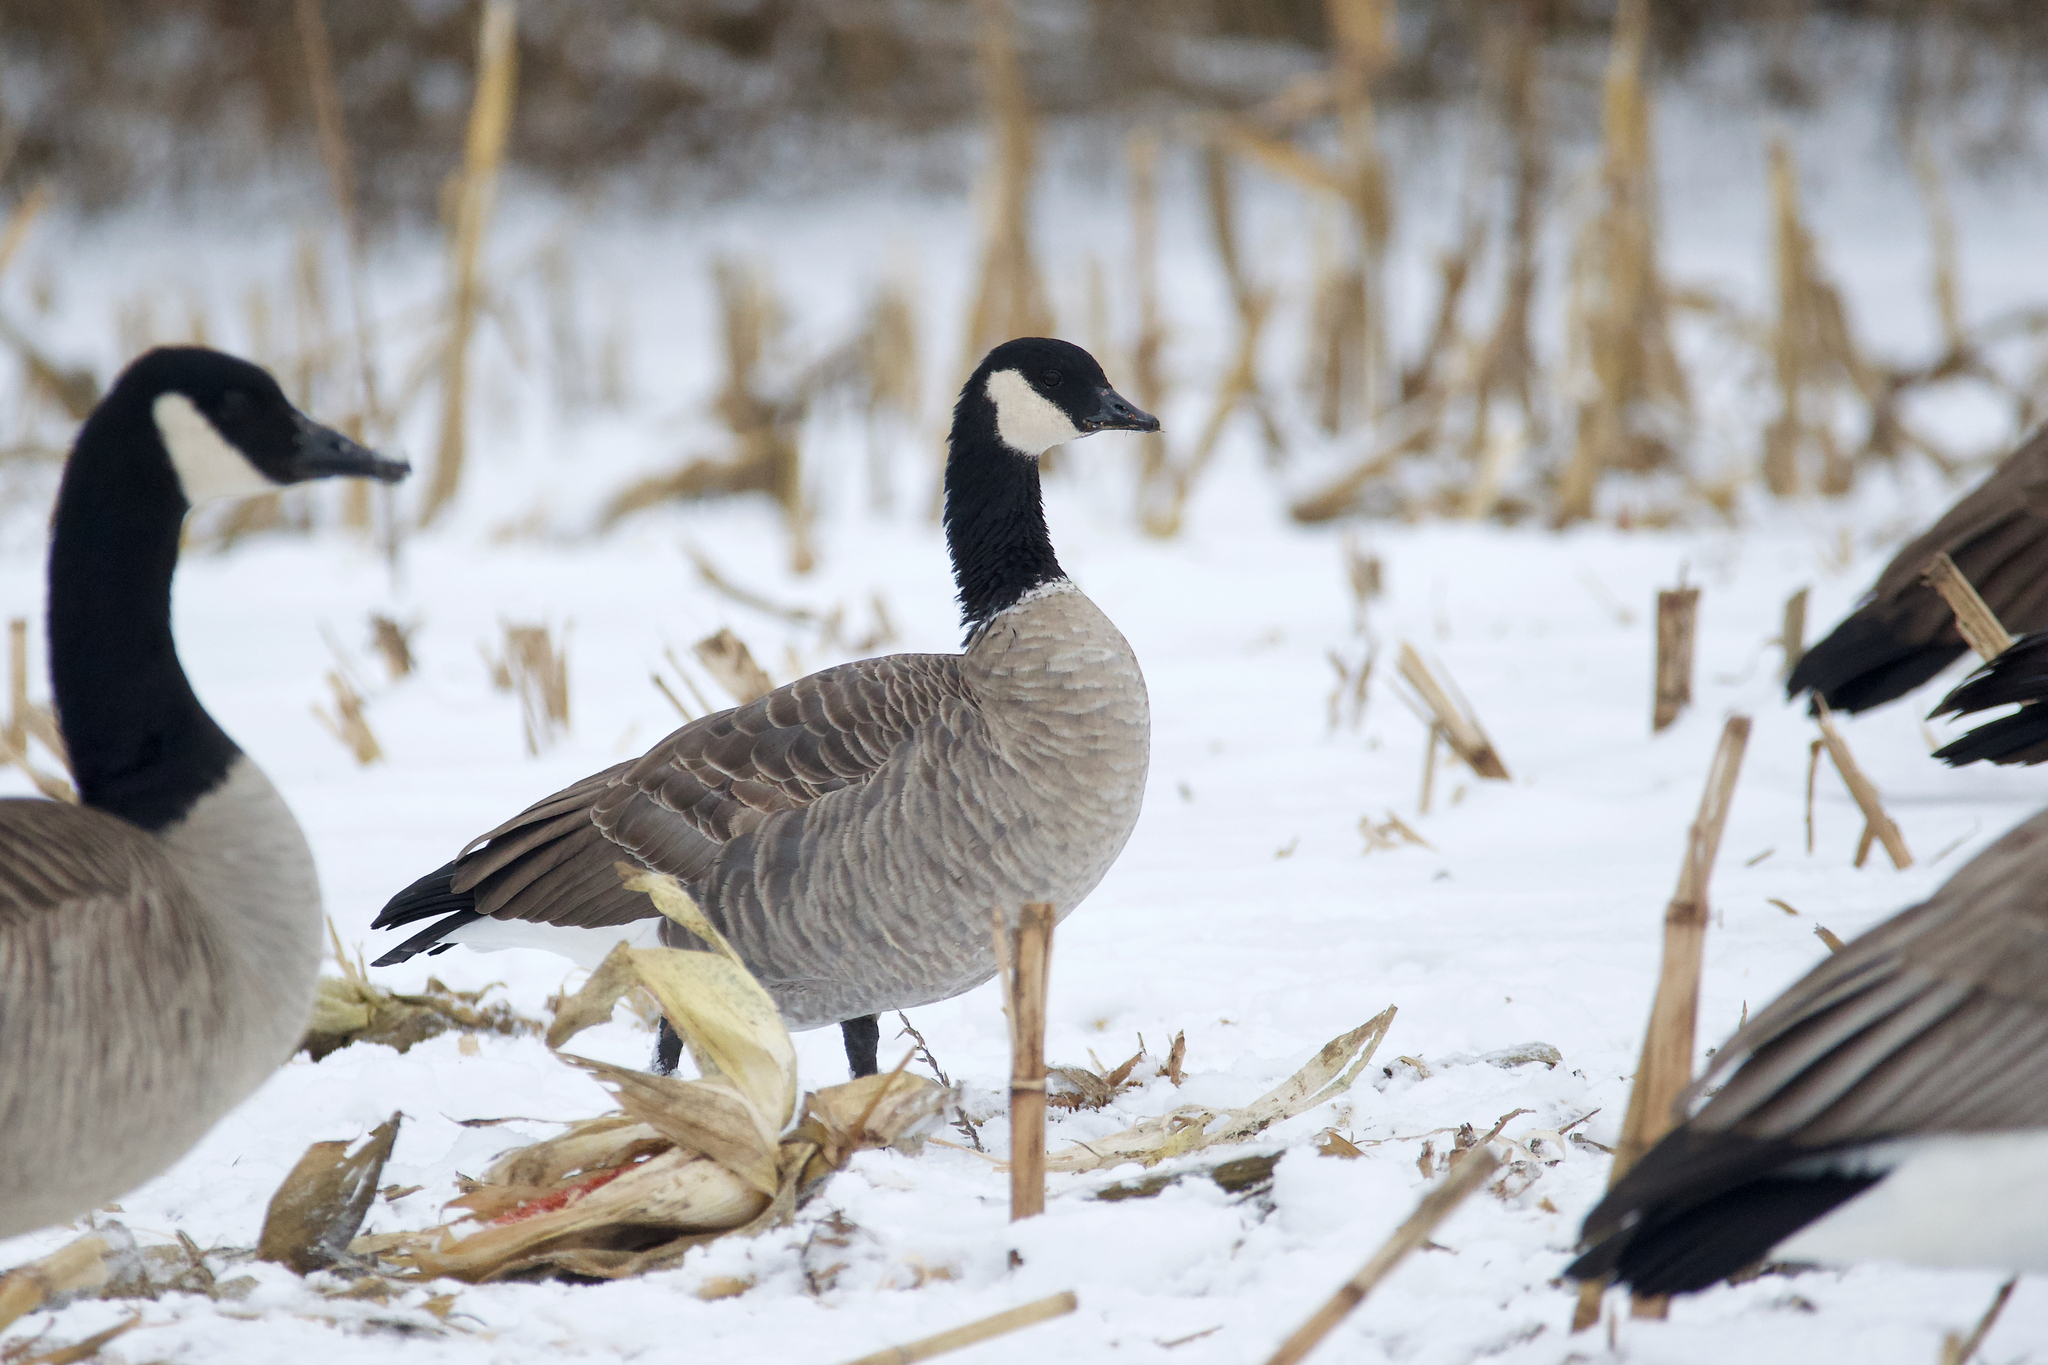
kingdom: Animalia
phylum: Chordata
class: Aves
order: Anseriformes
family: Anatidae
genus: Branta
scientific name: Branta hutchinsii
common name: Cackling goose
